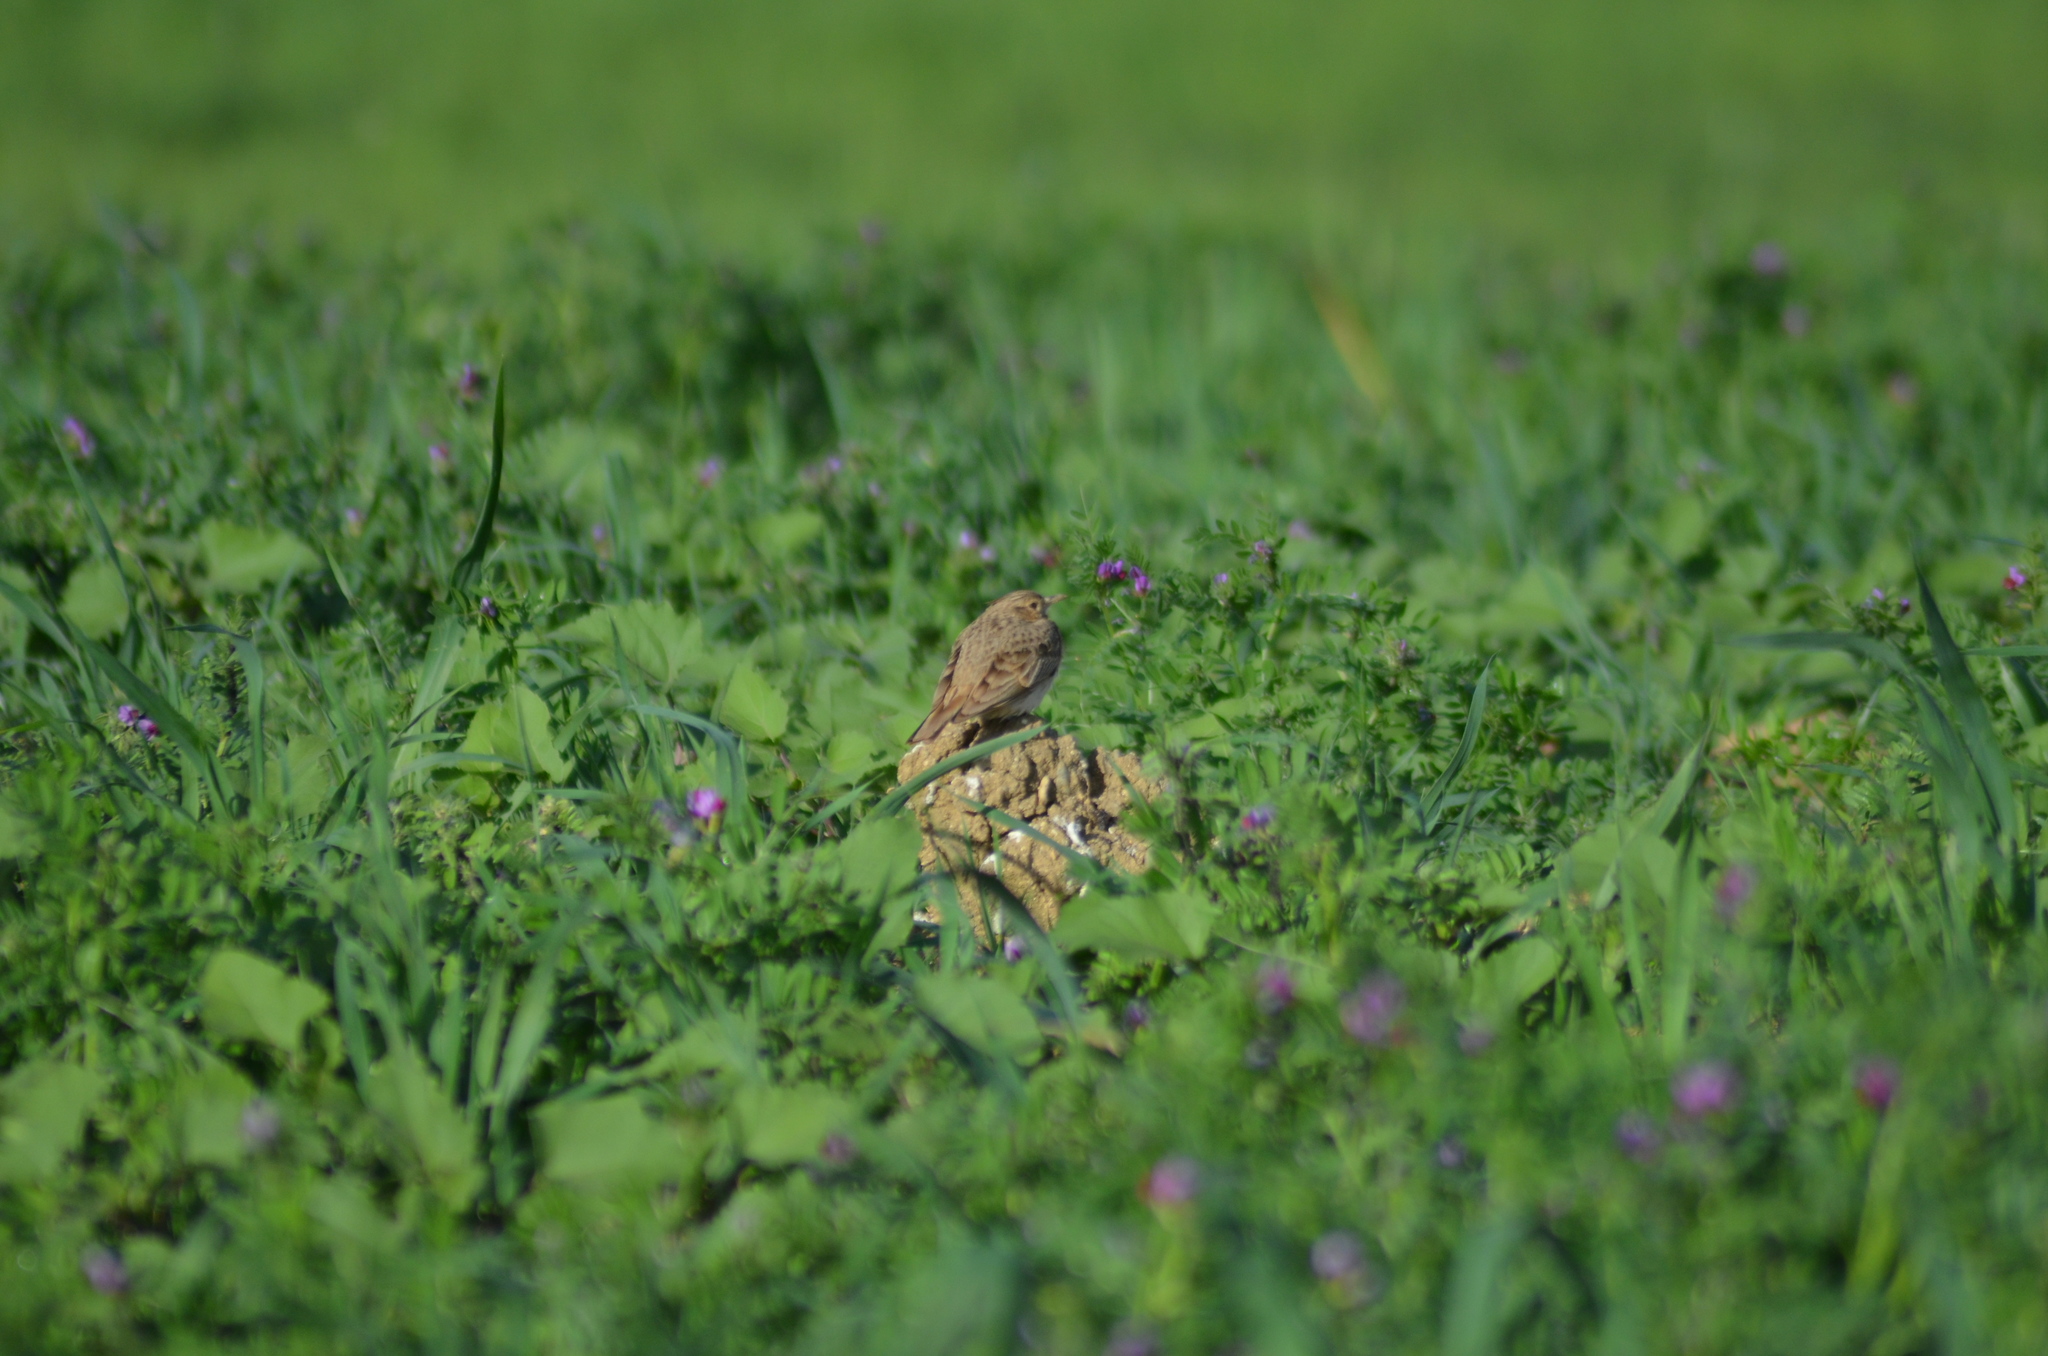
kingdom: Animalia
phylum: Chordata
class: Aves
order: Passeriformes
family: Alaudidae
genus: Galerida
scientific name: Galerida cristata
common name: Crested lark
